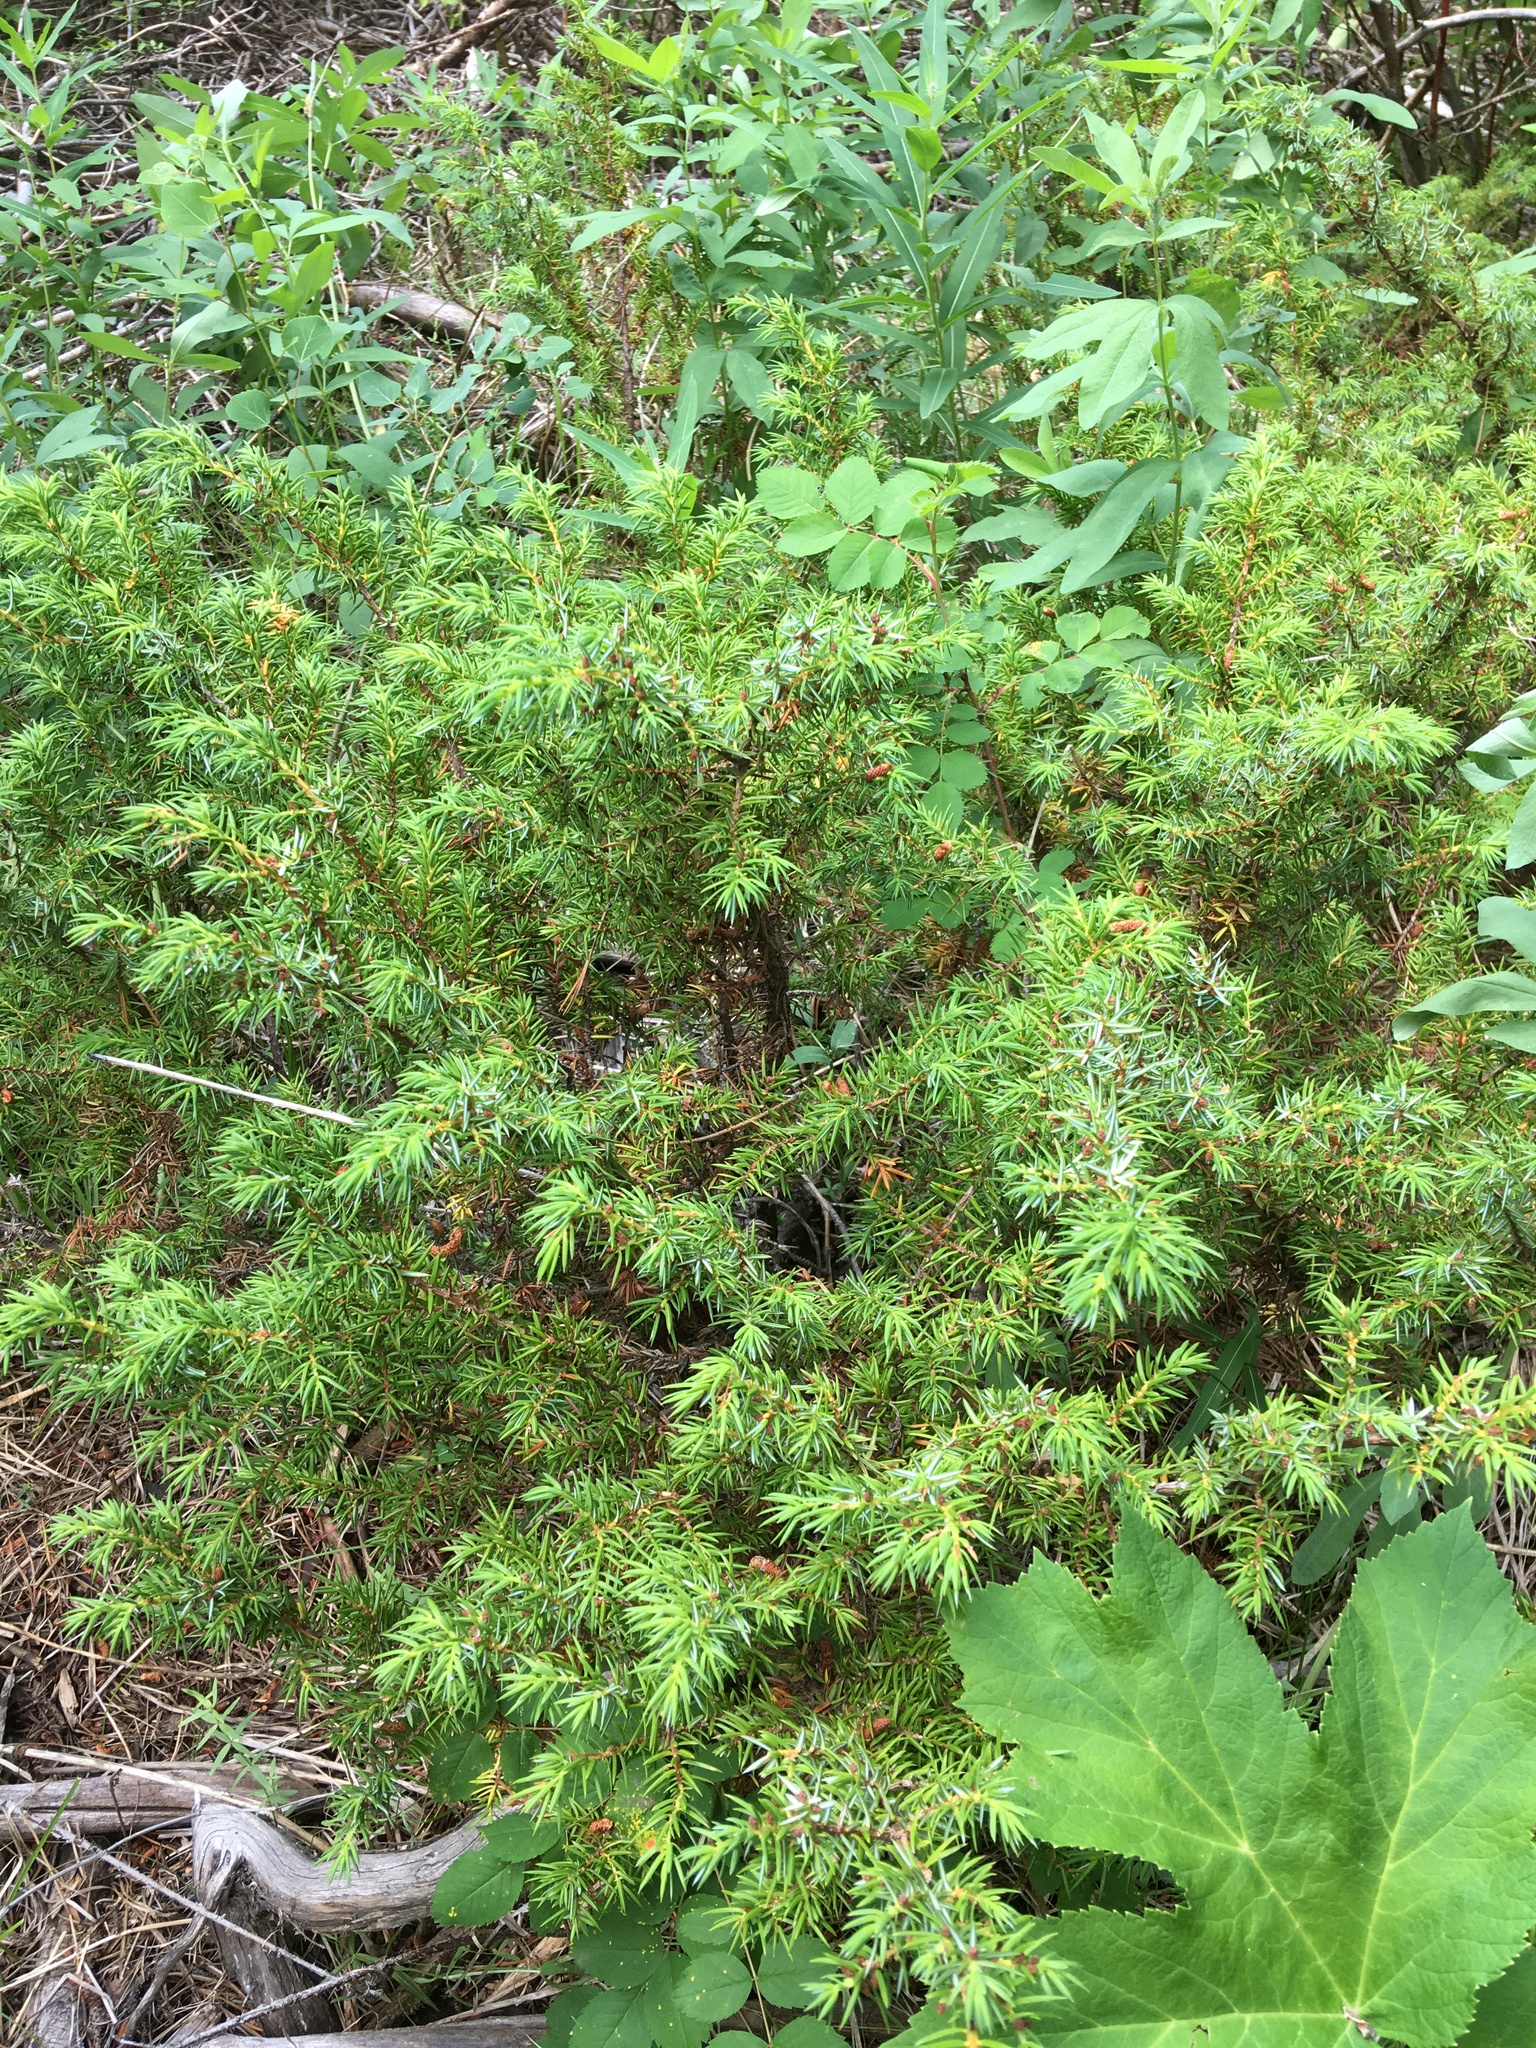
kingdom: Plantae
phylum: Tracheophyta
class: Pinopsida
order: Pinales
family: Cupressaceae
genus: Juniperus
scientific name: Juniperus communis
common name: Common juniper
